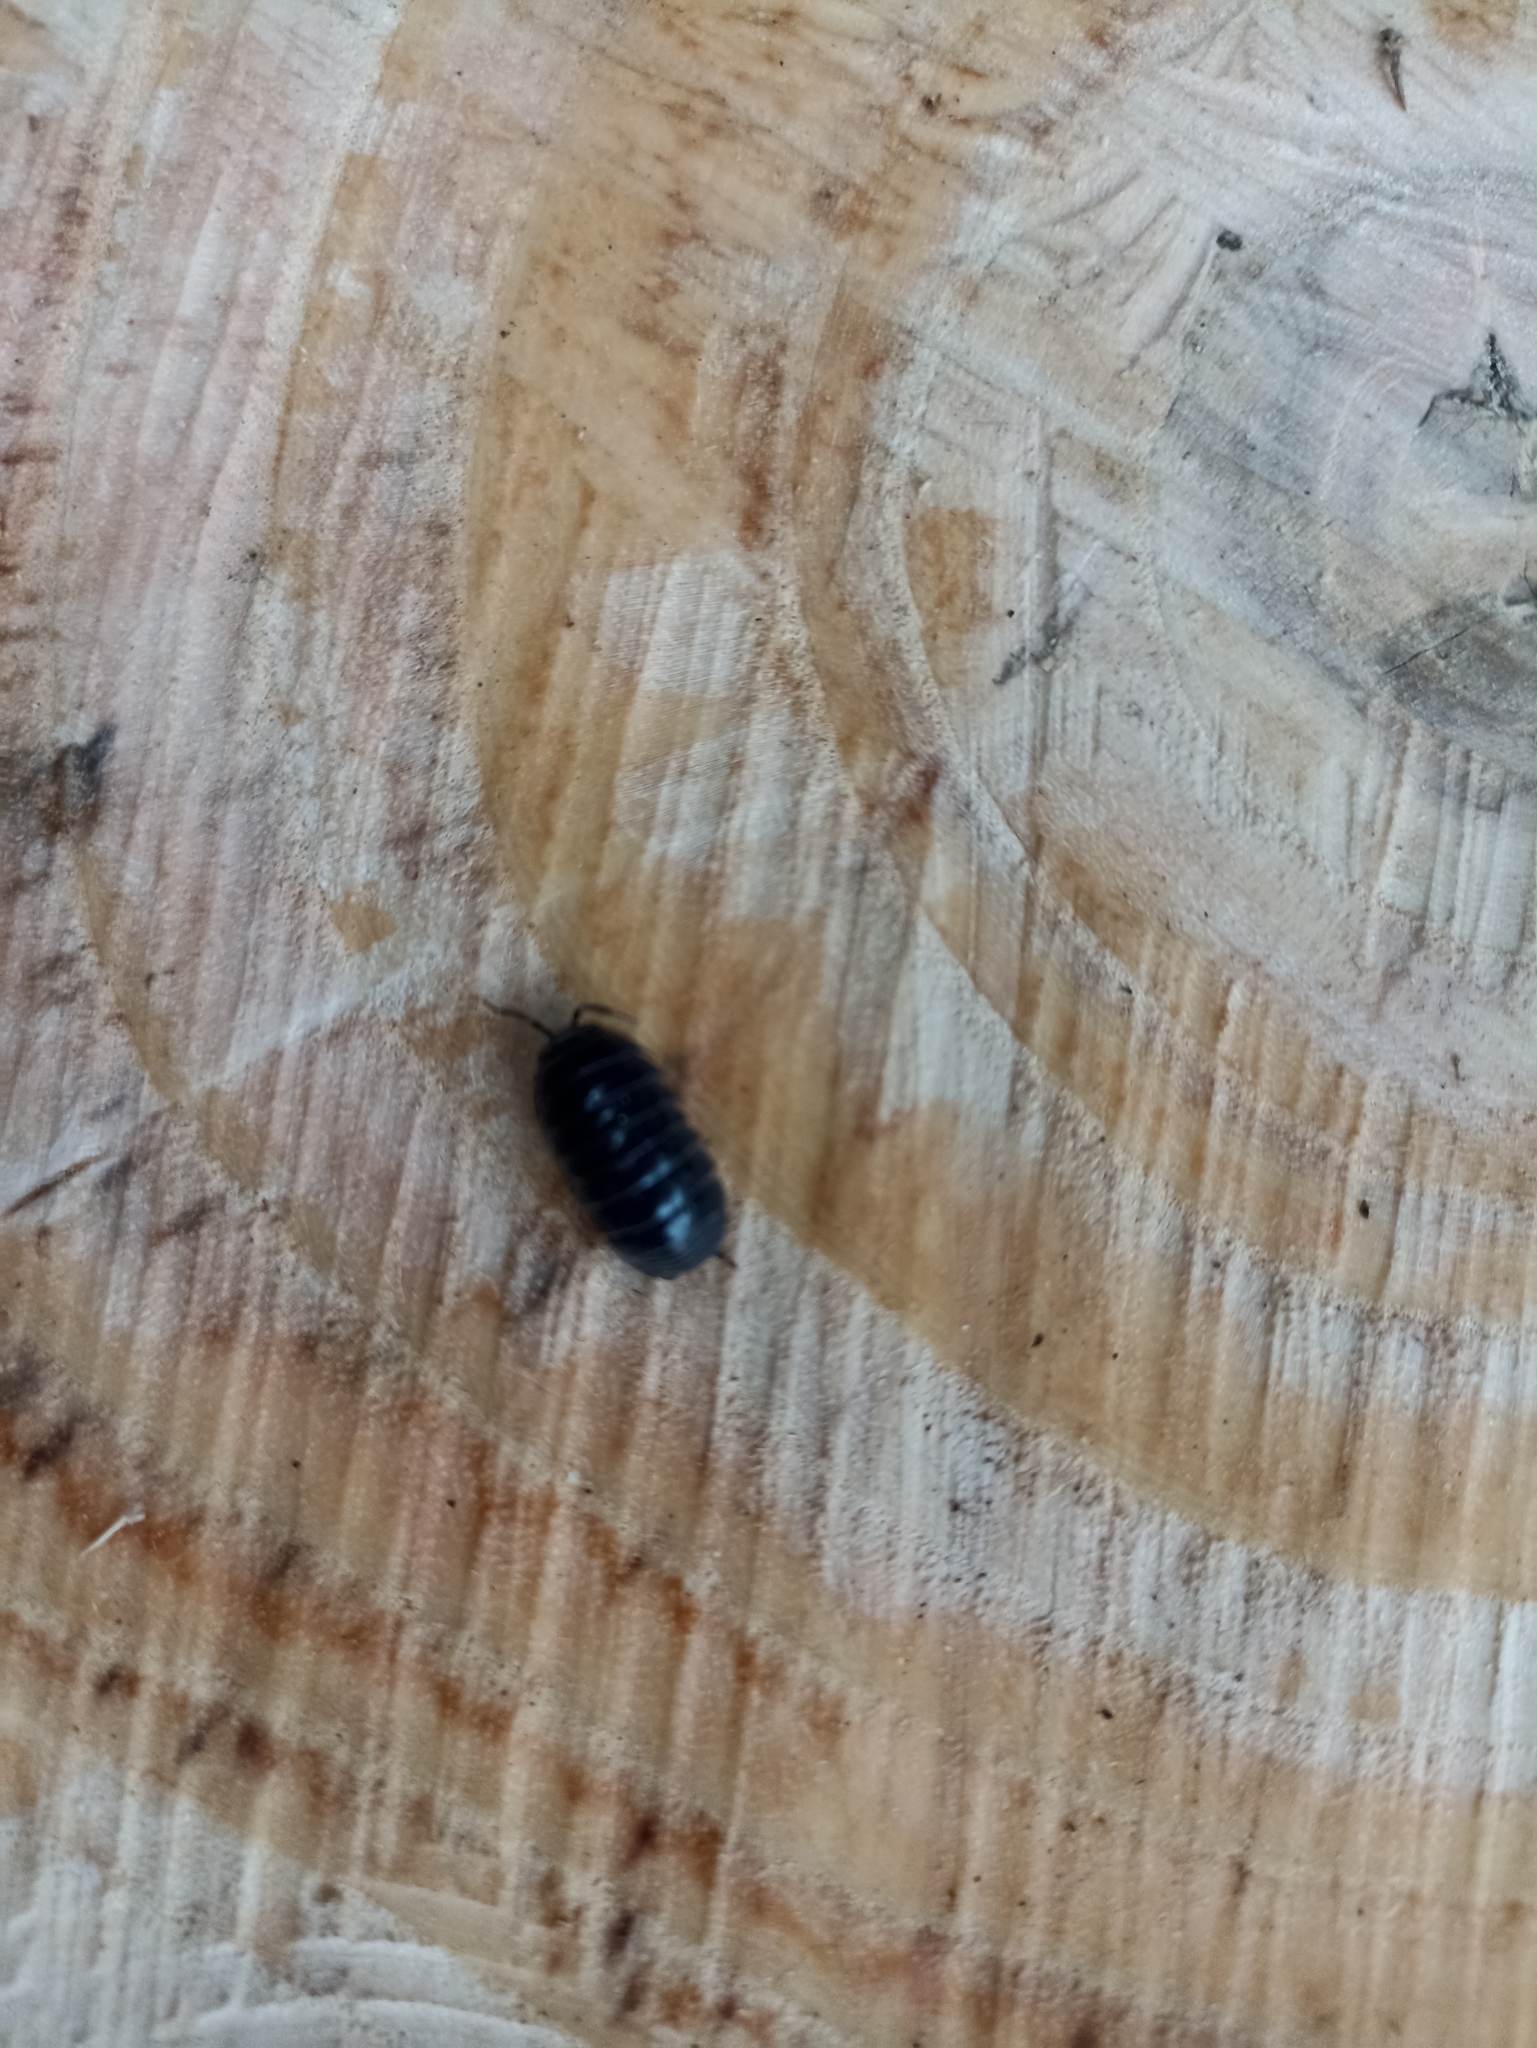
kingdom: Animalia
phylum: Arthropoda
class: Malacostraca
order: Isopoda
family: Armadillidiidae
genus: Armadillidium
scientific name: Armadillidium vulgare
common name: Common pill woodlouse
